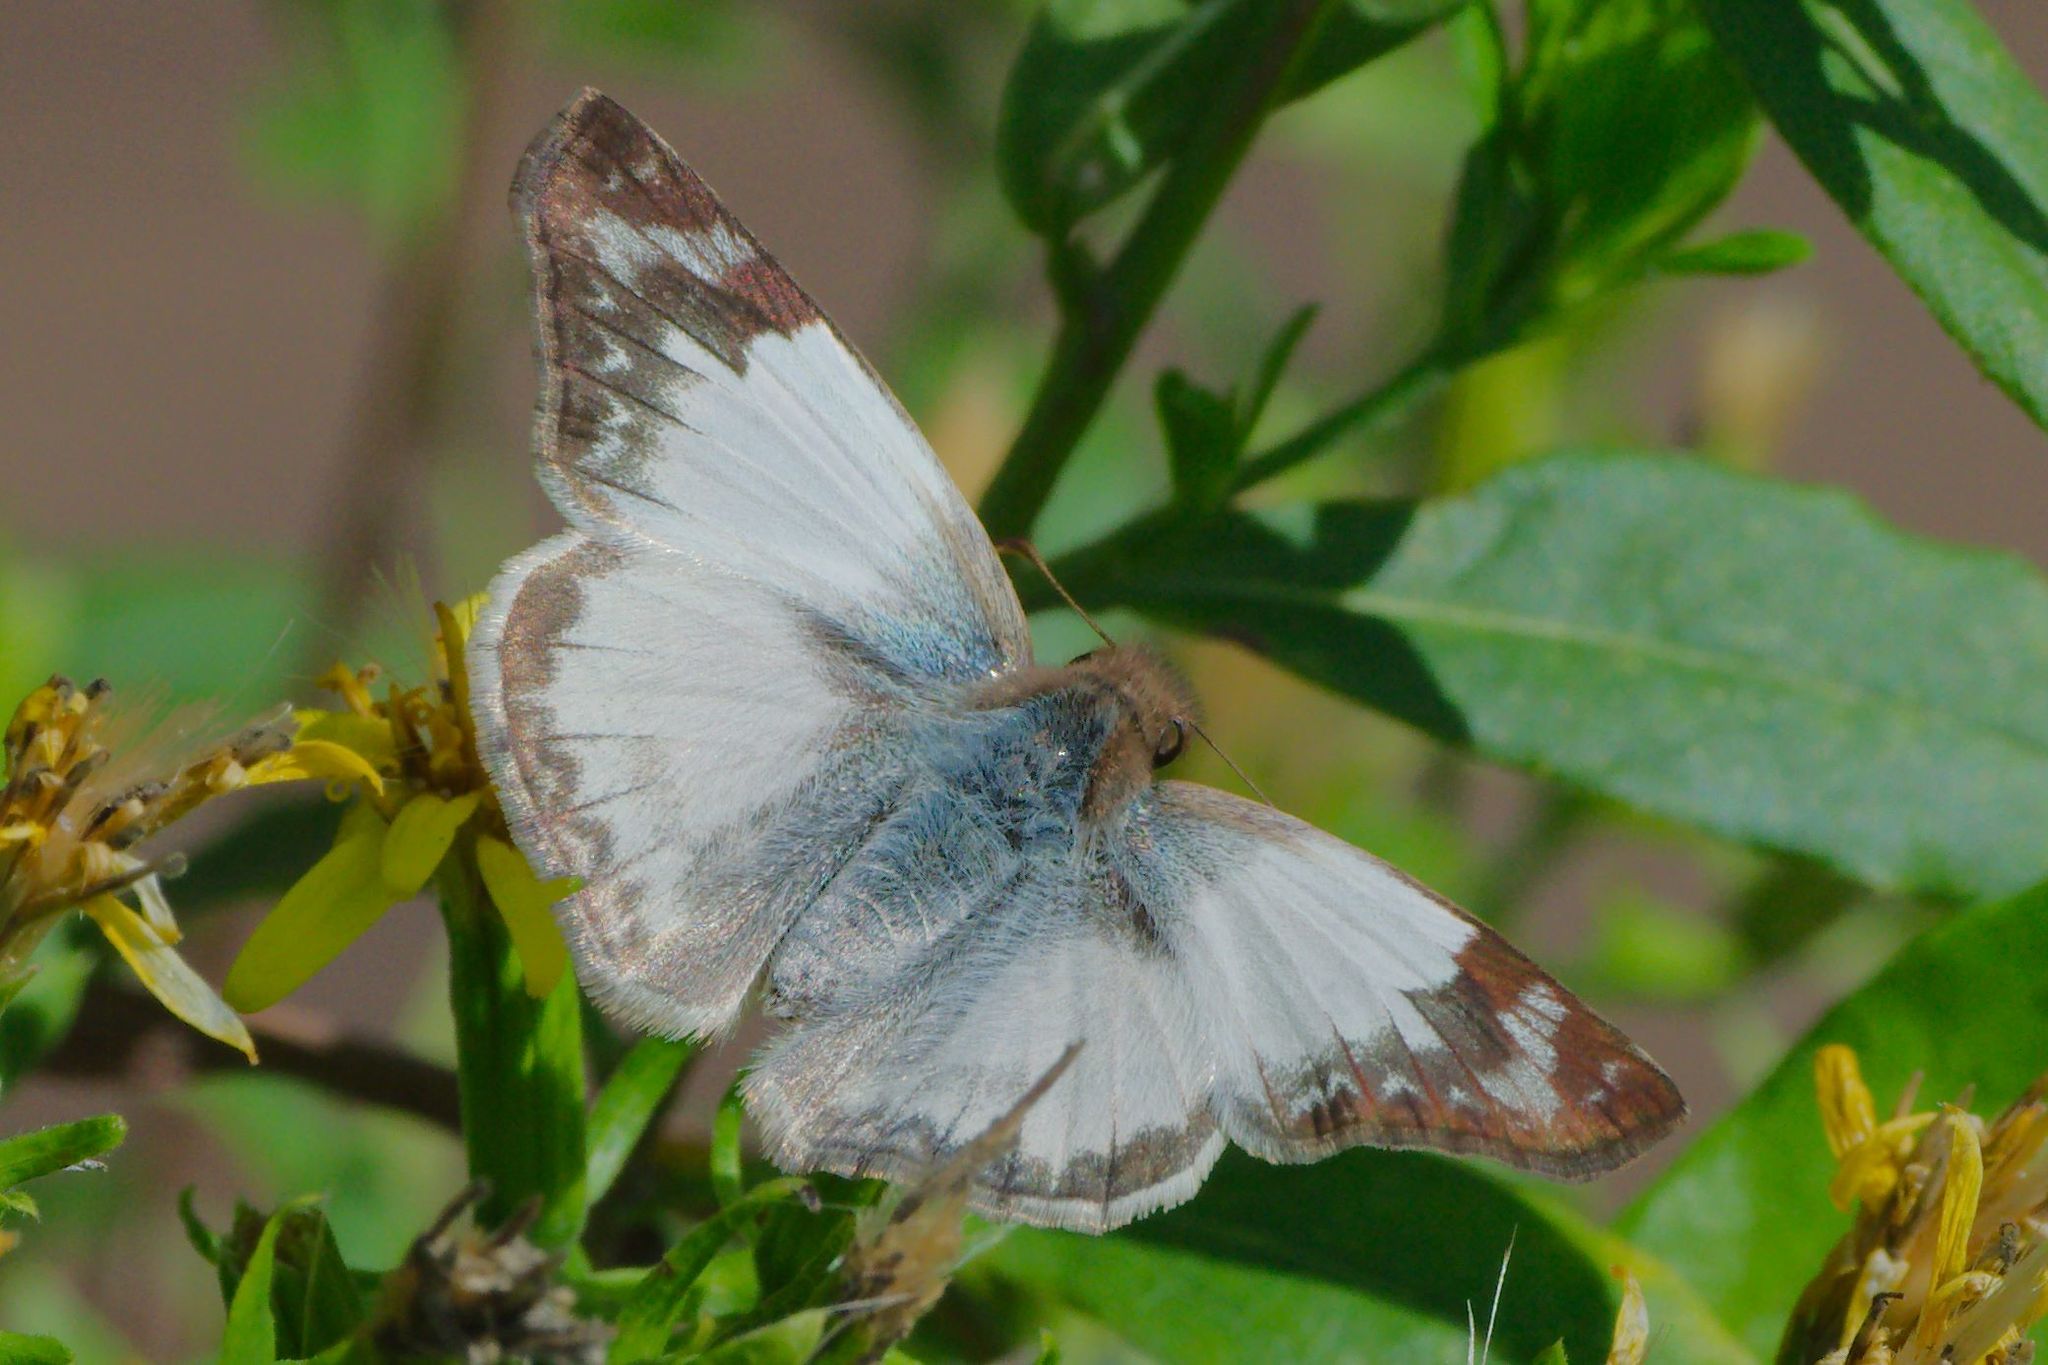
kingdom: Animalia
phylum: Arthropoda
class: Insecta
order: Lepidoptera
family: Hesperiidae
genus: Heliopetes
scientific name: Heliopetes laviana
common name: Laviana white-skipper
